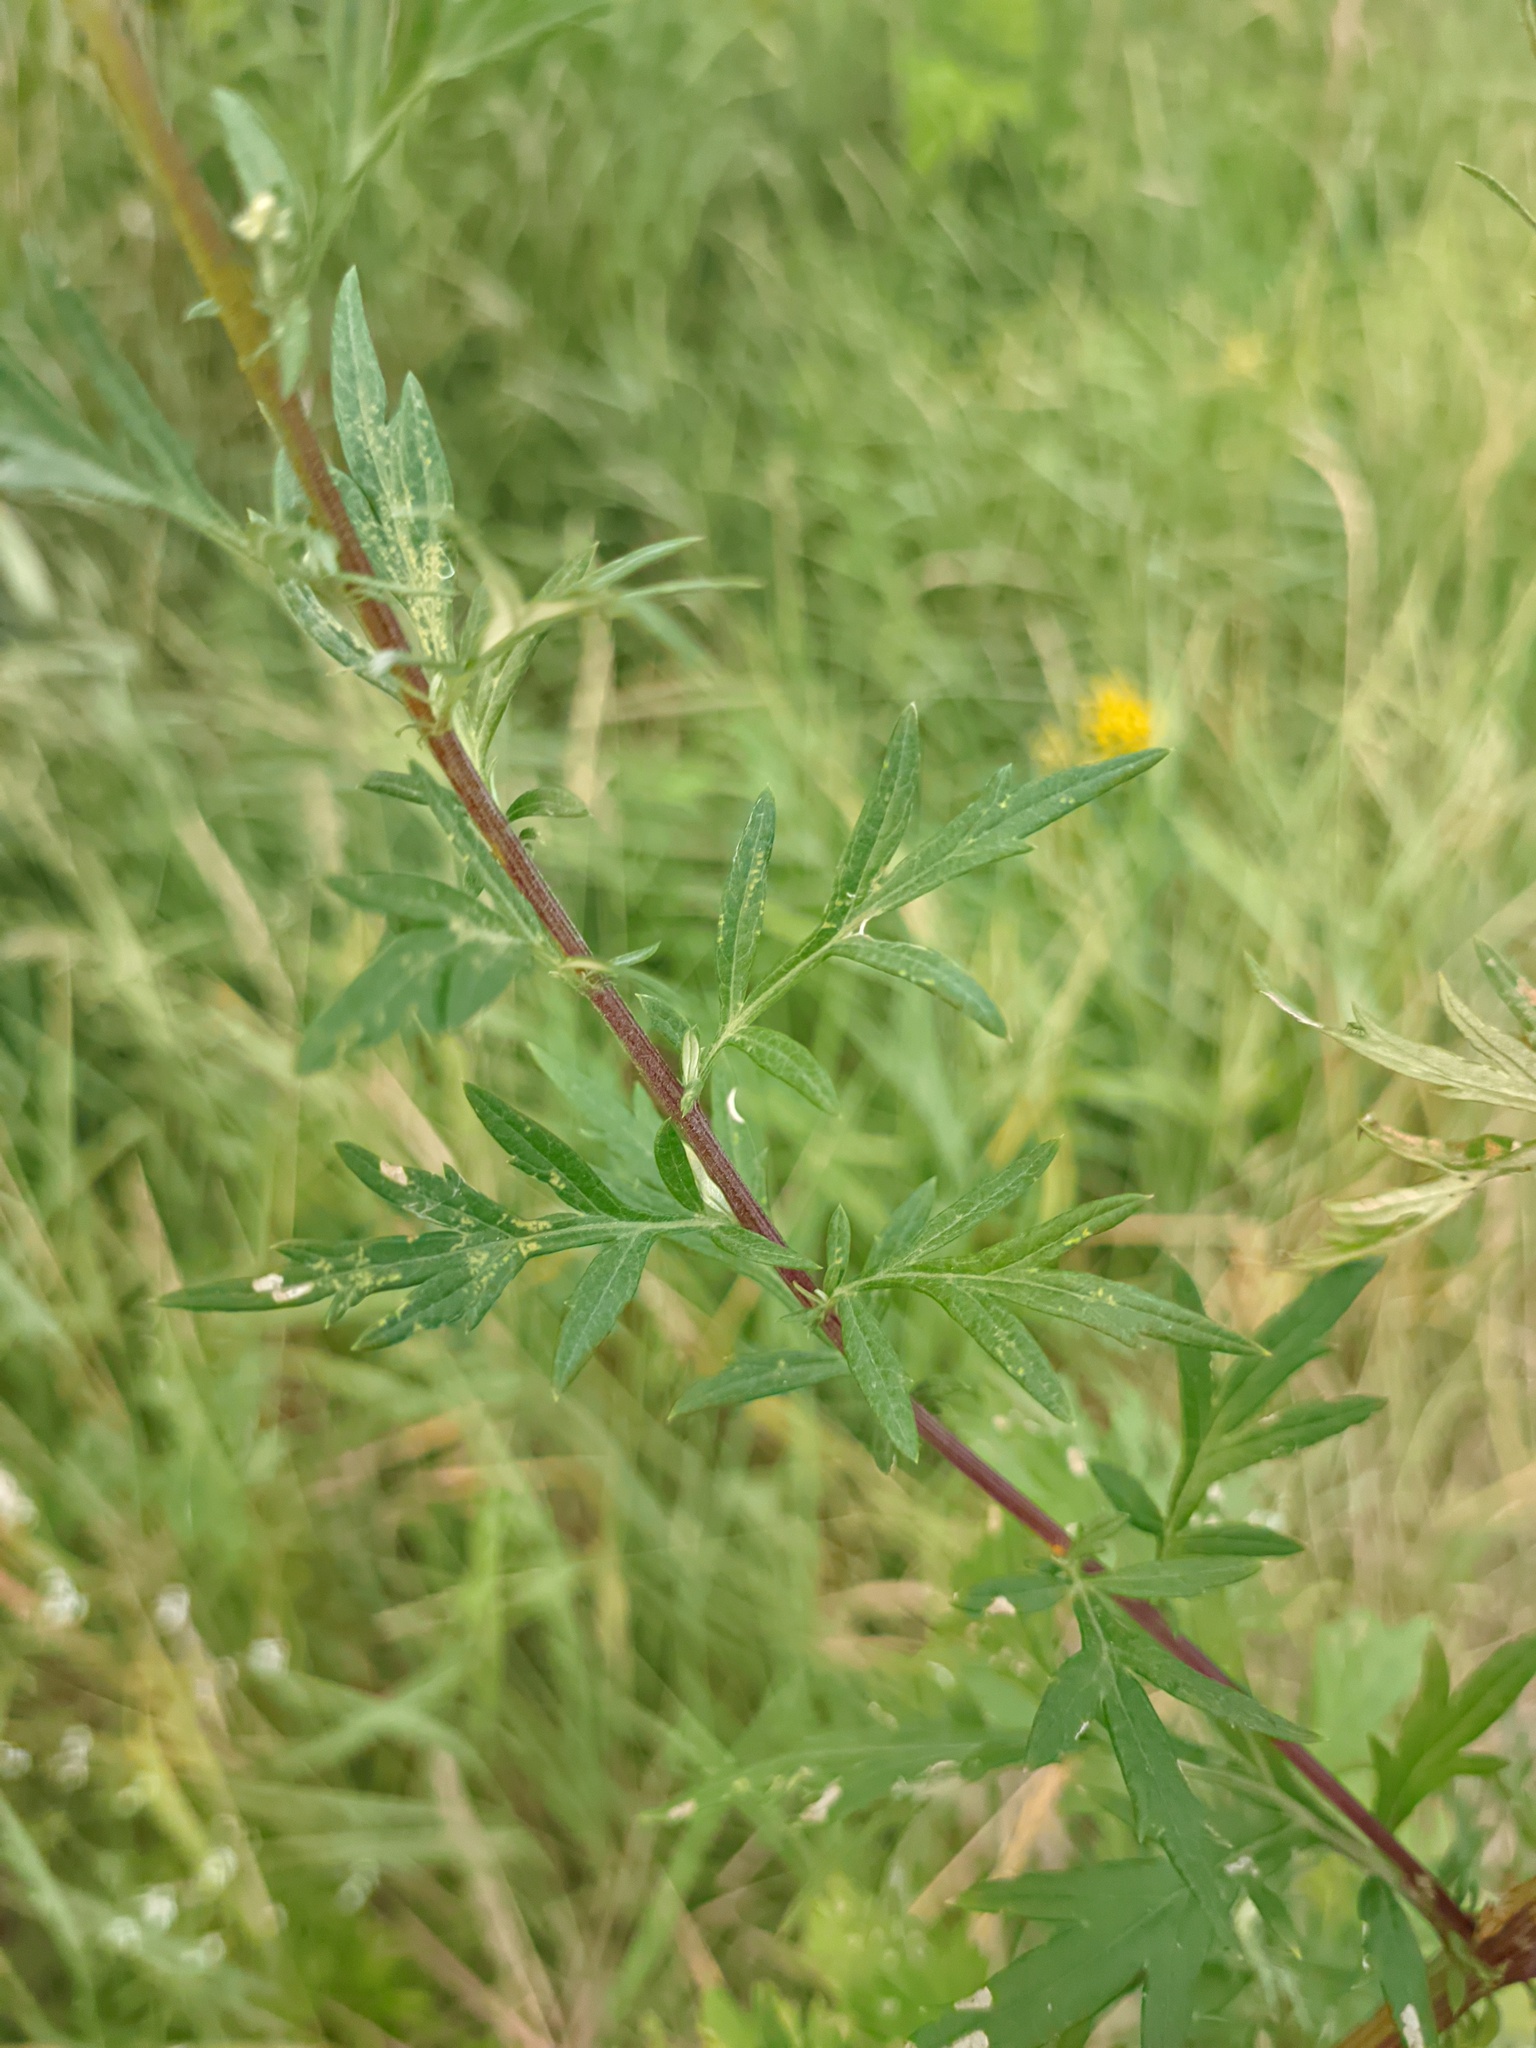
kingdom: Plantae
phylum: Tracheophyta
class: Magnoliopsida
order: Asterales
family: Asteraceae
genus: Artemisia
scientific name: Artemisia vulgaris
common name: Mugwort
